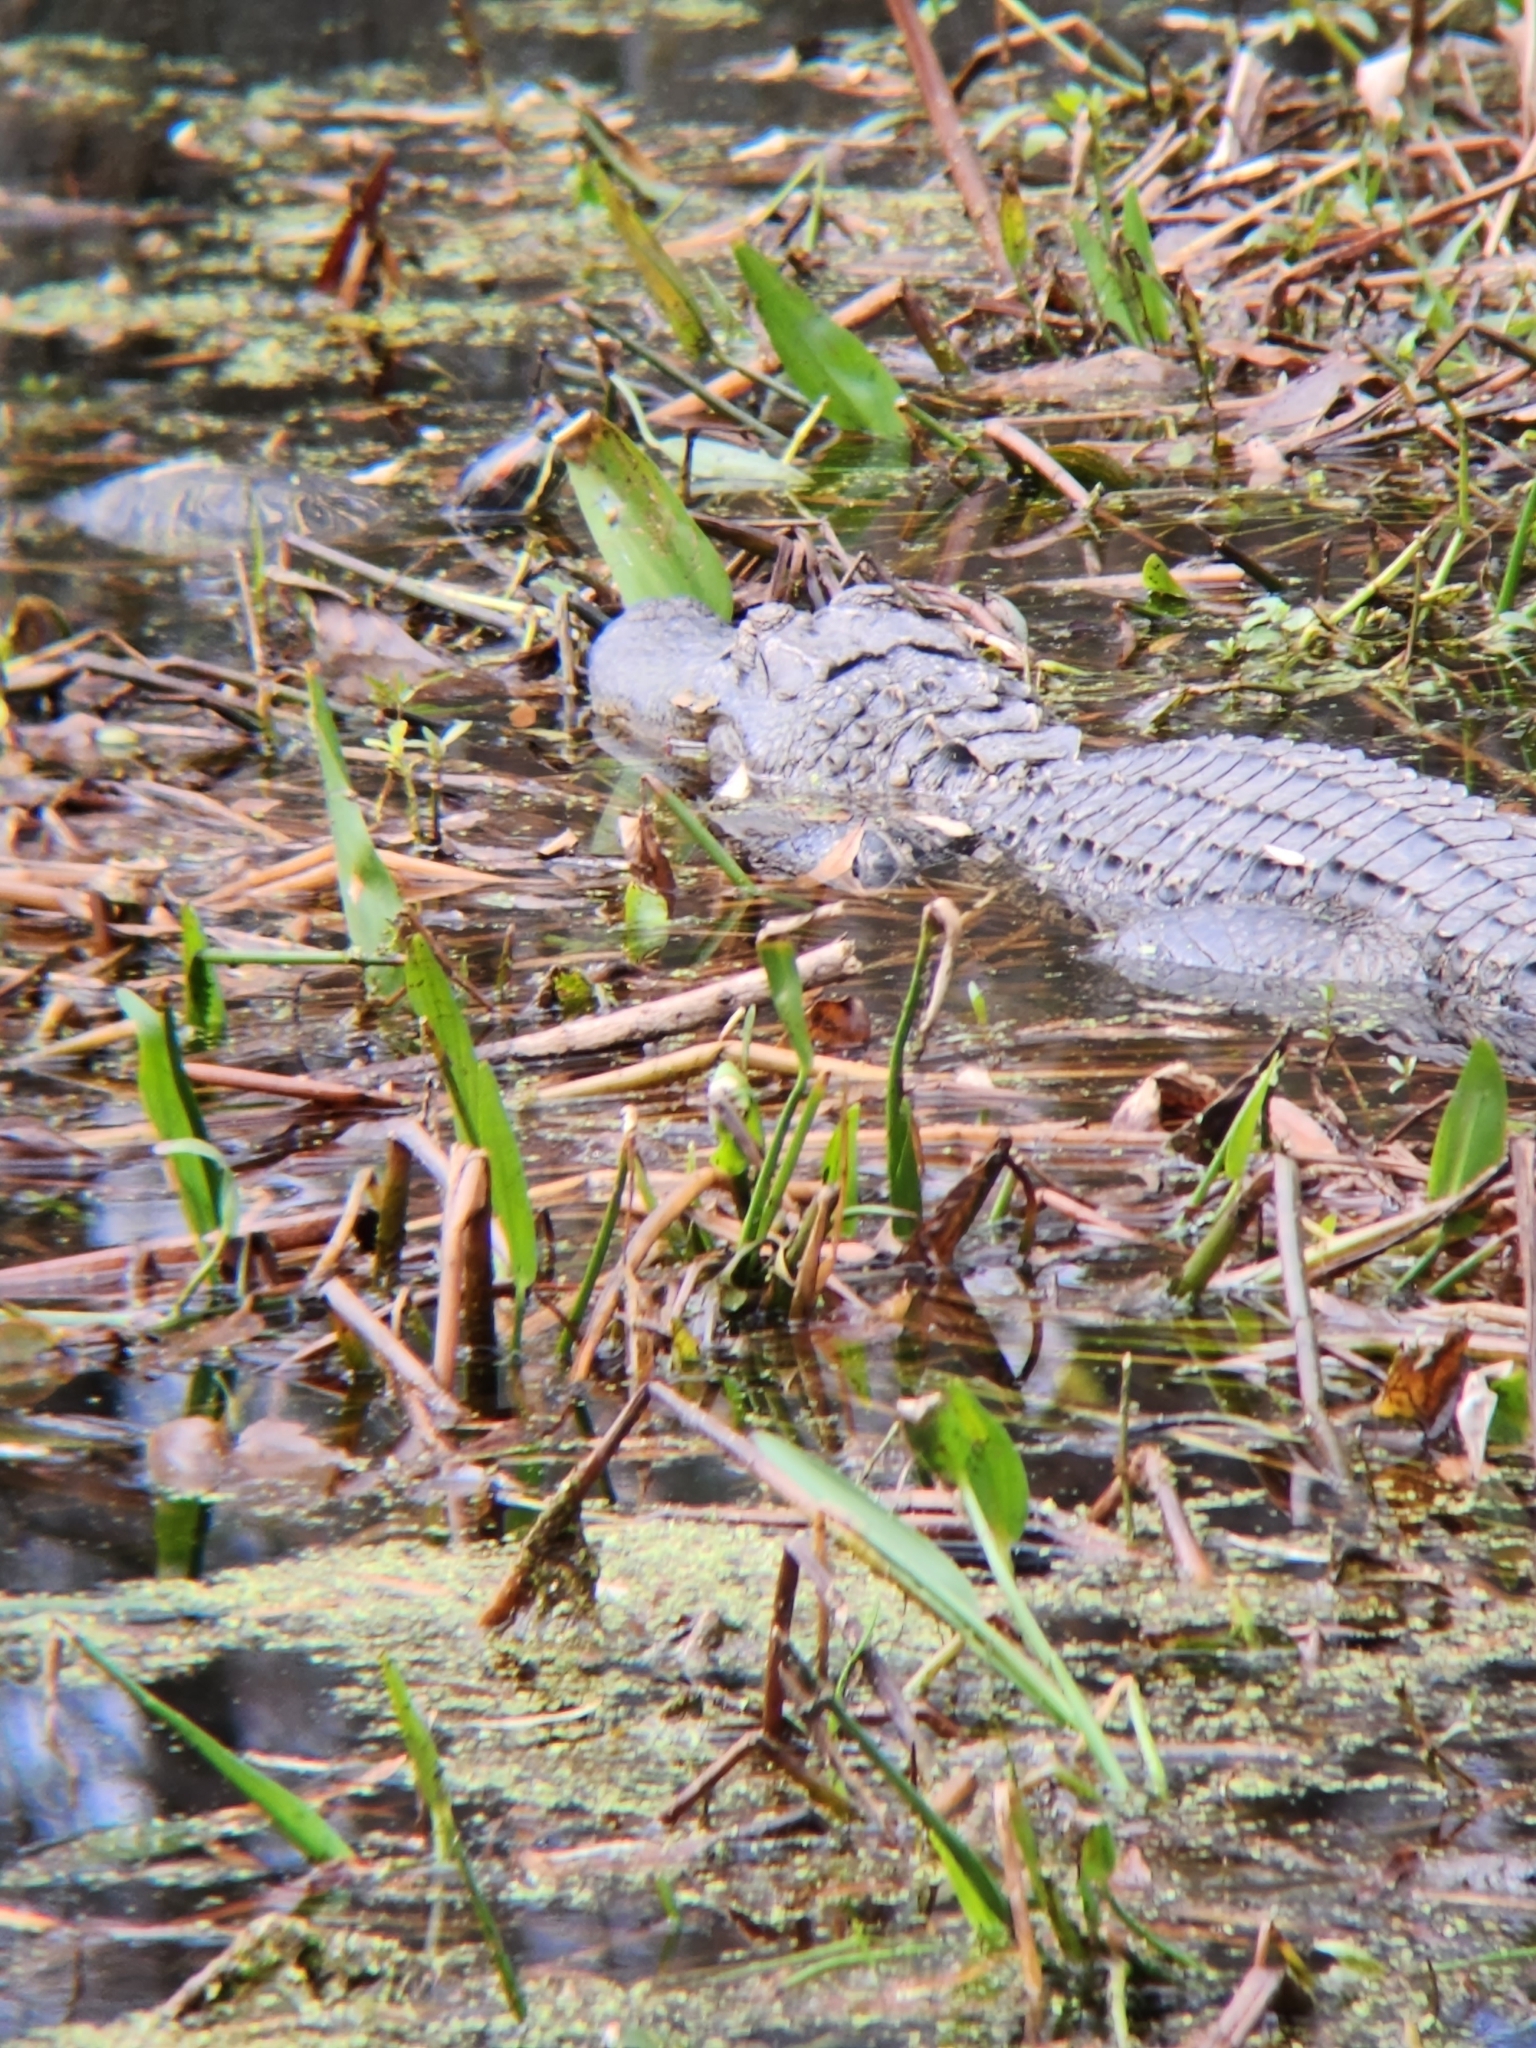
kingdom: Animalia
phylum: Chordata
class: Crocodylia
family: Alligatoridae
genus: Alligator
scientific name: Alligator mississippiensis
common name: American alligator
